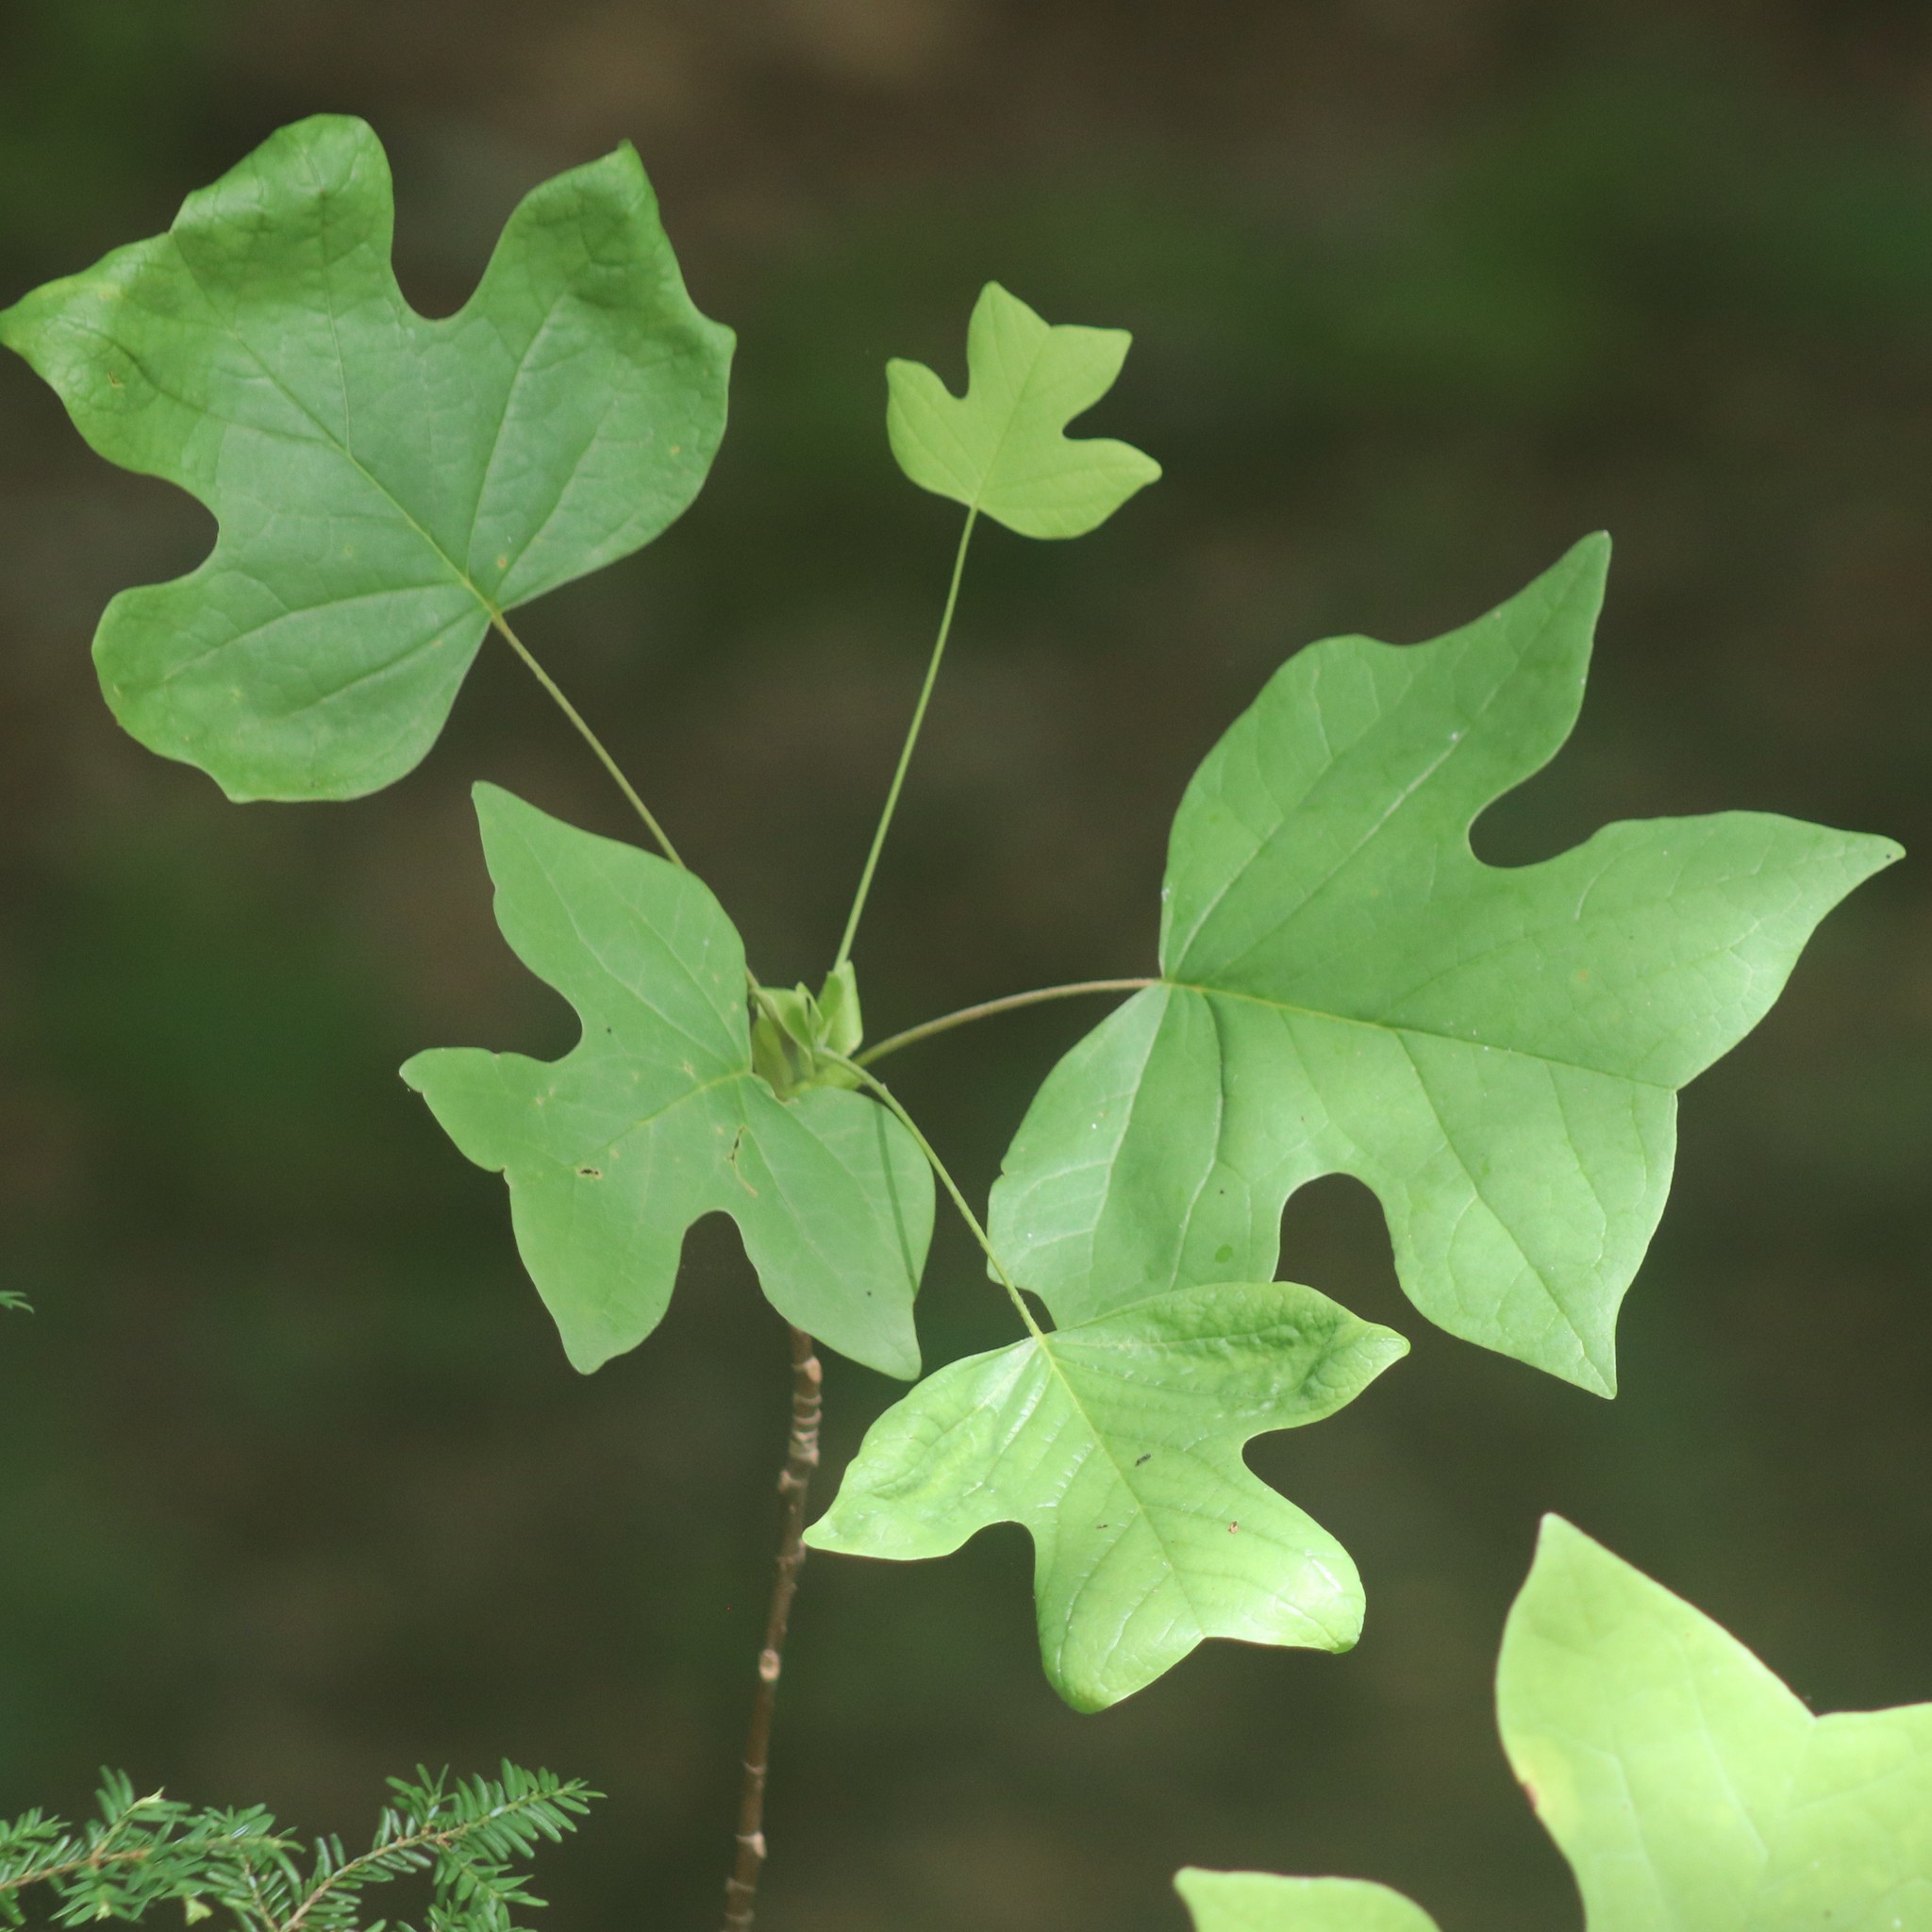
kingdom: Plantae
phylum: Tracheophyta
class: Magnoliopsida
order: Magnoliales
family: Magnoliaceae
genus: Liriodendron
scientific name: Liriodendron tulipifera
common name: Tulip tree
